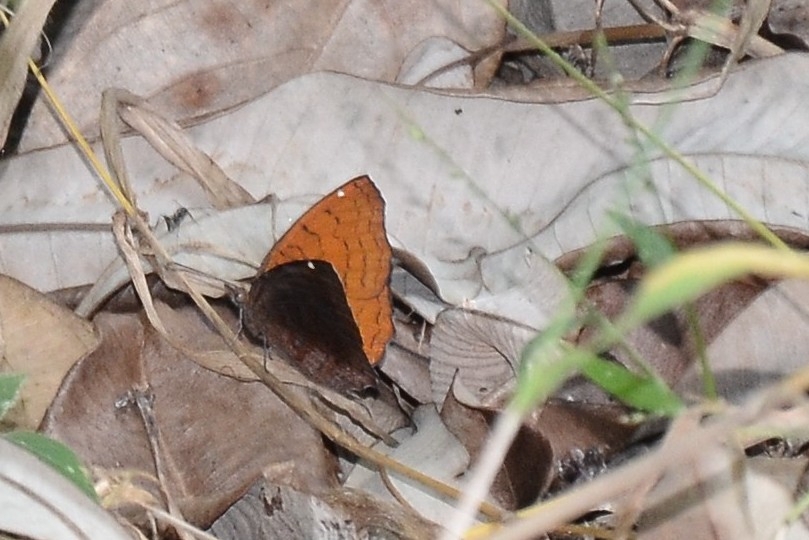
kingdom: Animalia
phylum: Arthropoda
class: Insecta
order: Lepidoptera
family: Nymphalidae
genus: Ariadne
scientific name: Ariadne ariadne
